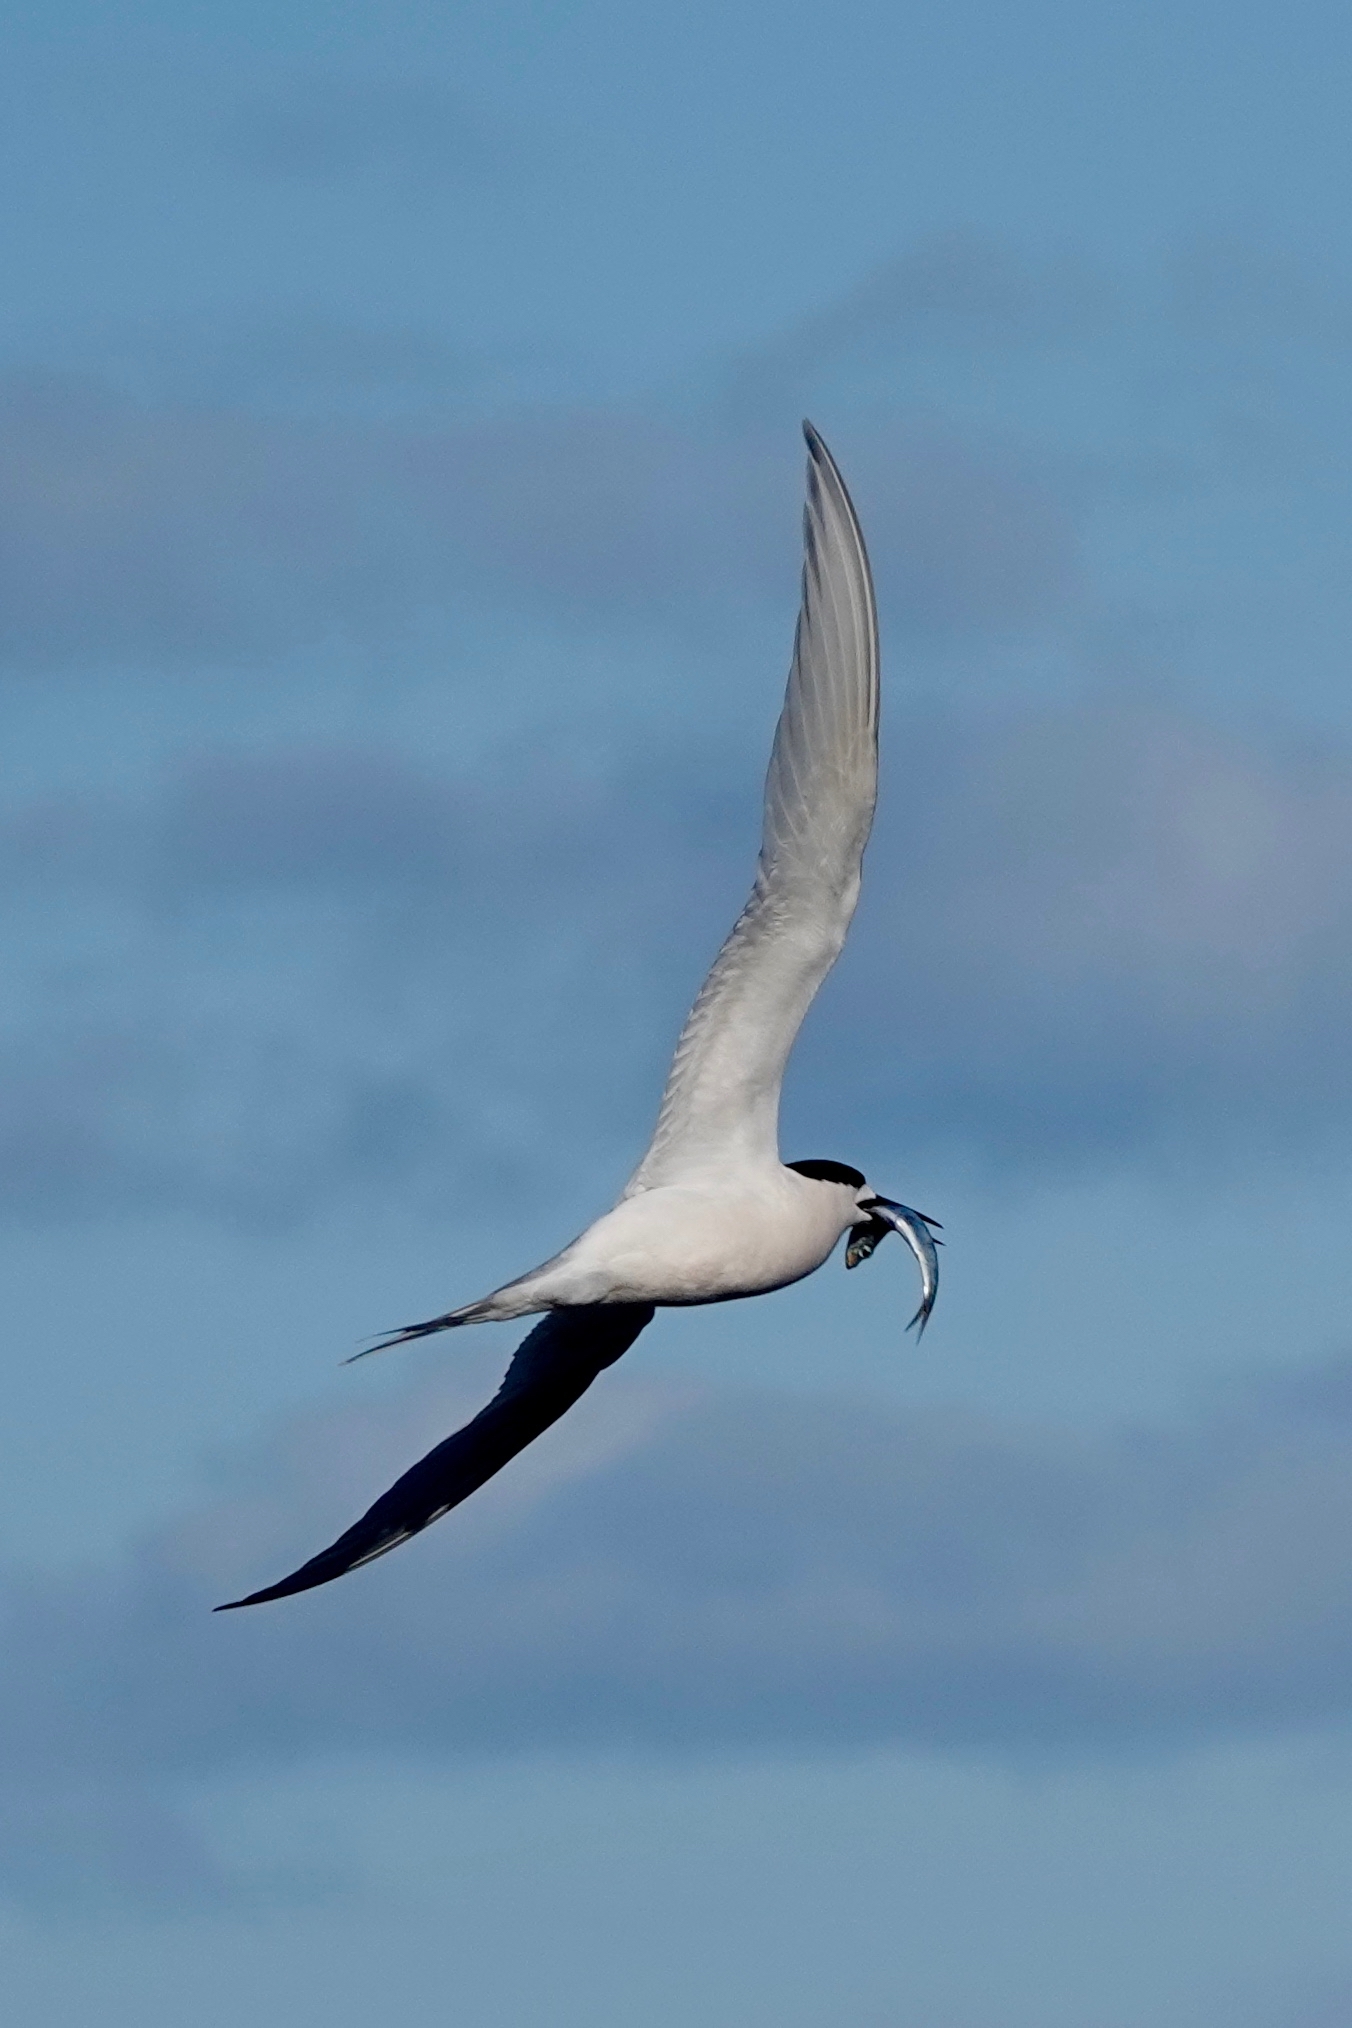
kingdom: Animalia
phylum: Chordata
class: Aves
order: Charadriiformes
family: Laridae
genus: Sterna
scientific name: Sterna striata
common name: White-fronted tern
